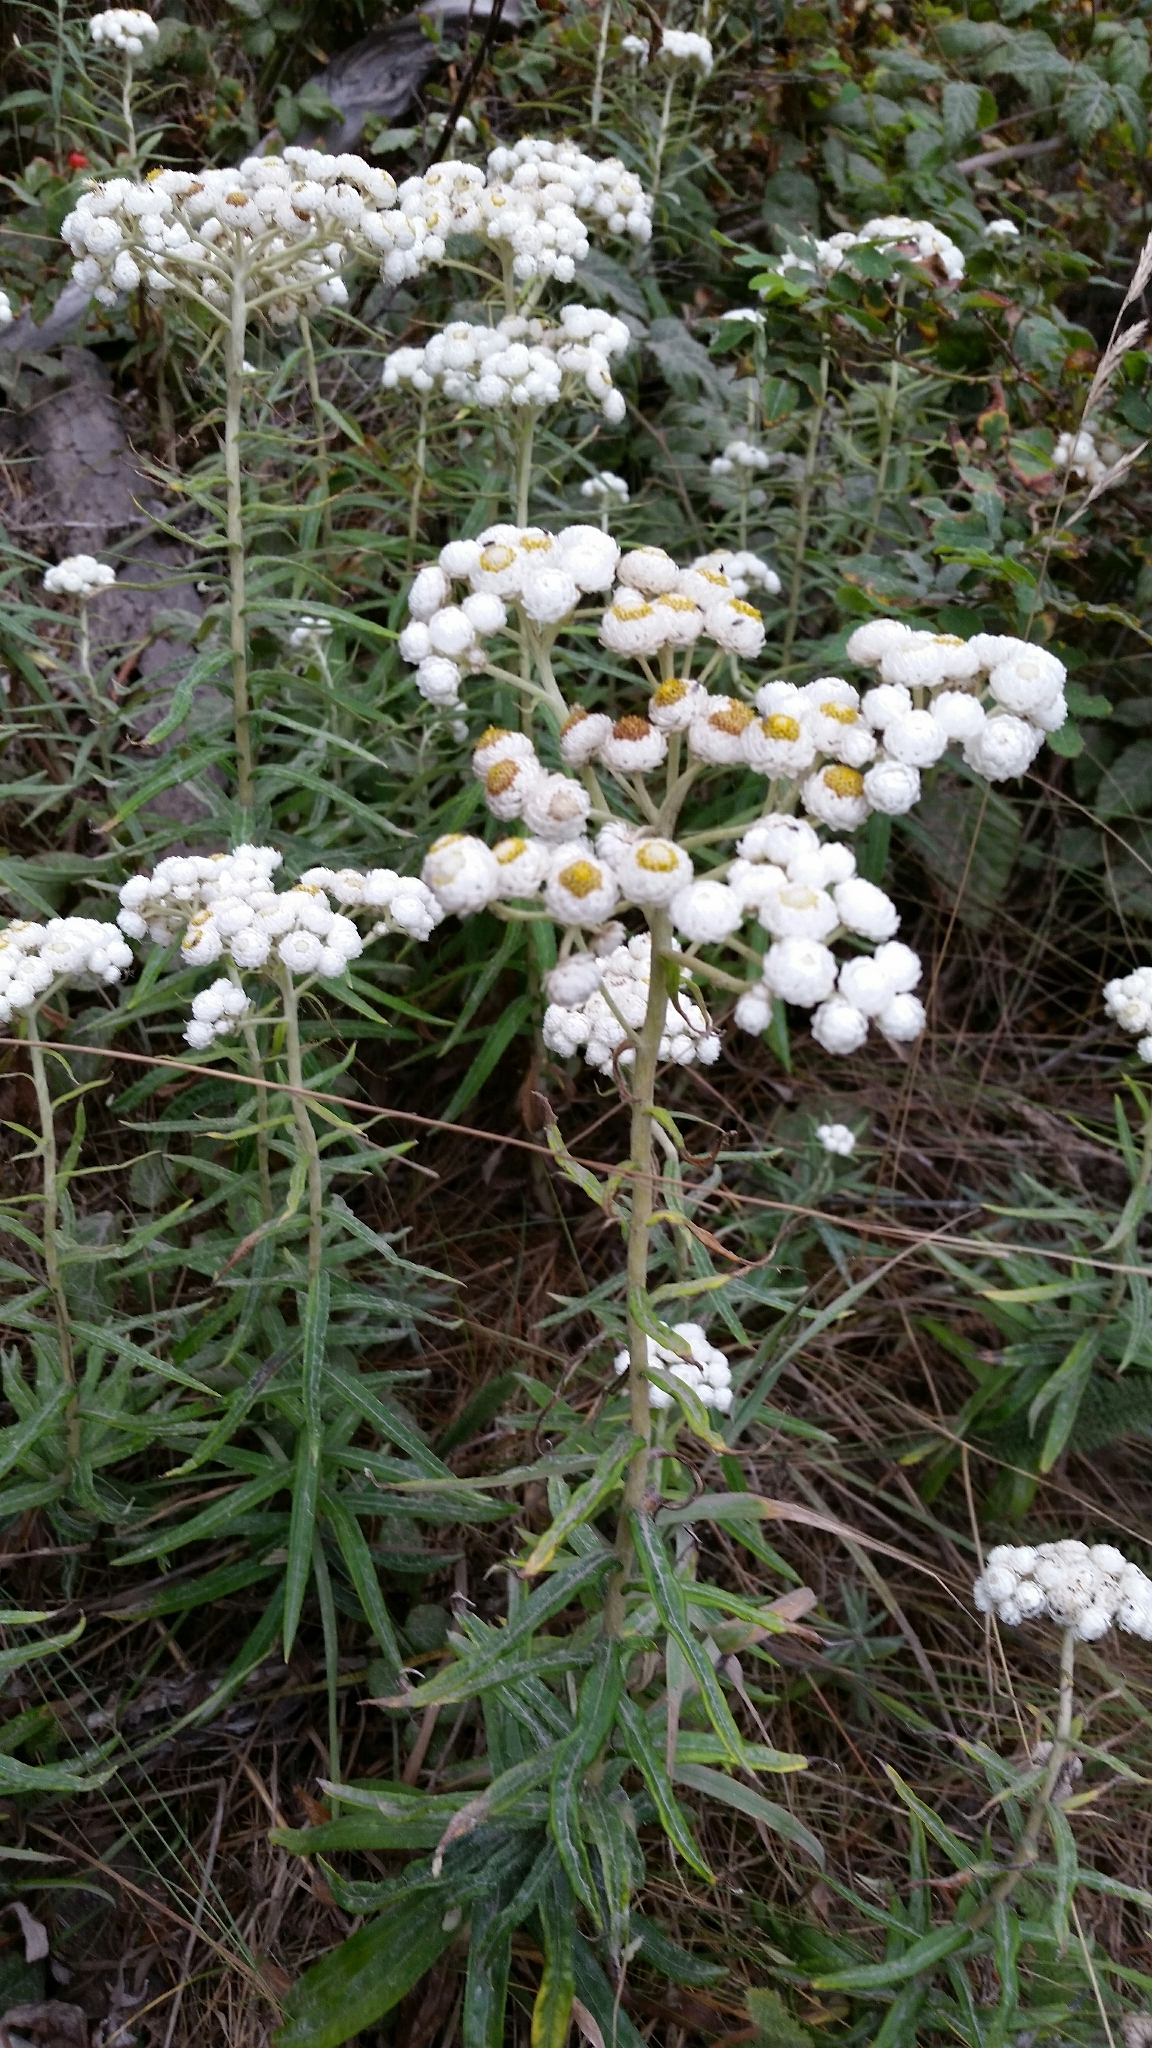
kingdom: Plantae
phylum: Tracheophyta
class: Magnoliopsida
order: Asterales
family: Asteraceae
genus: Anaphalis
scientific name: Anaphalis margaritacea
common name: Pearly everlasting
